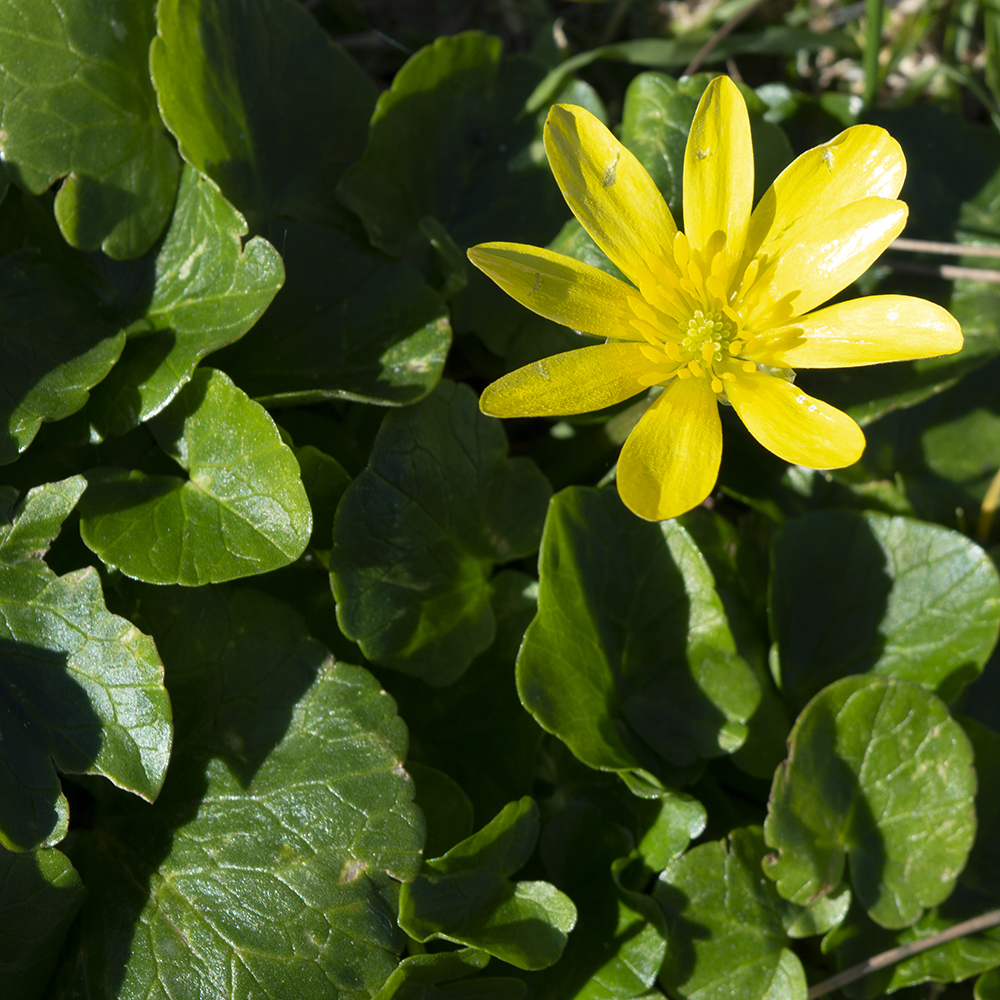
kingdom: Plantae
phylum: Tracheophyta
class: Magnoliopsida
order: Ranunculales
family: Ranunculaceae
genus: Ficaria
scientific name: Ficaria verna
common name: Lesser celandine
